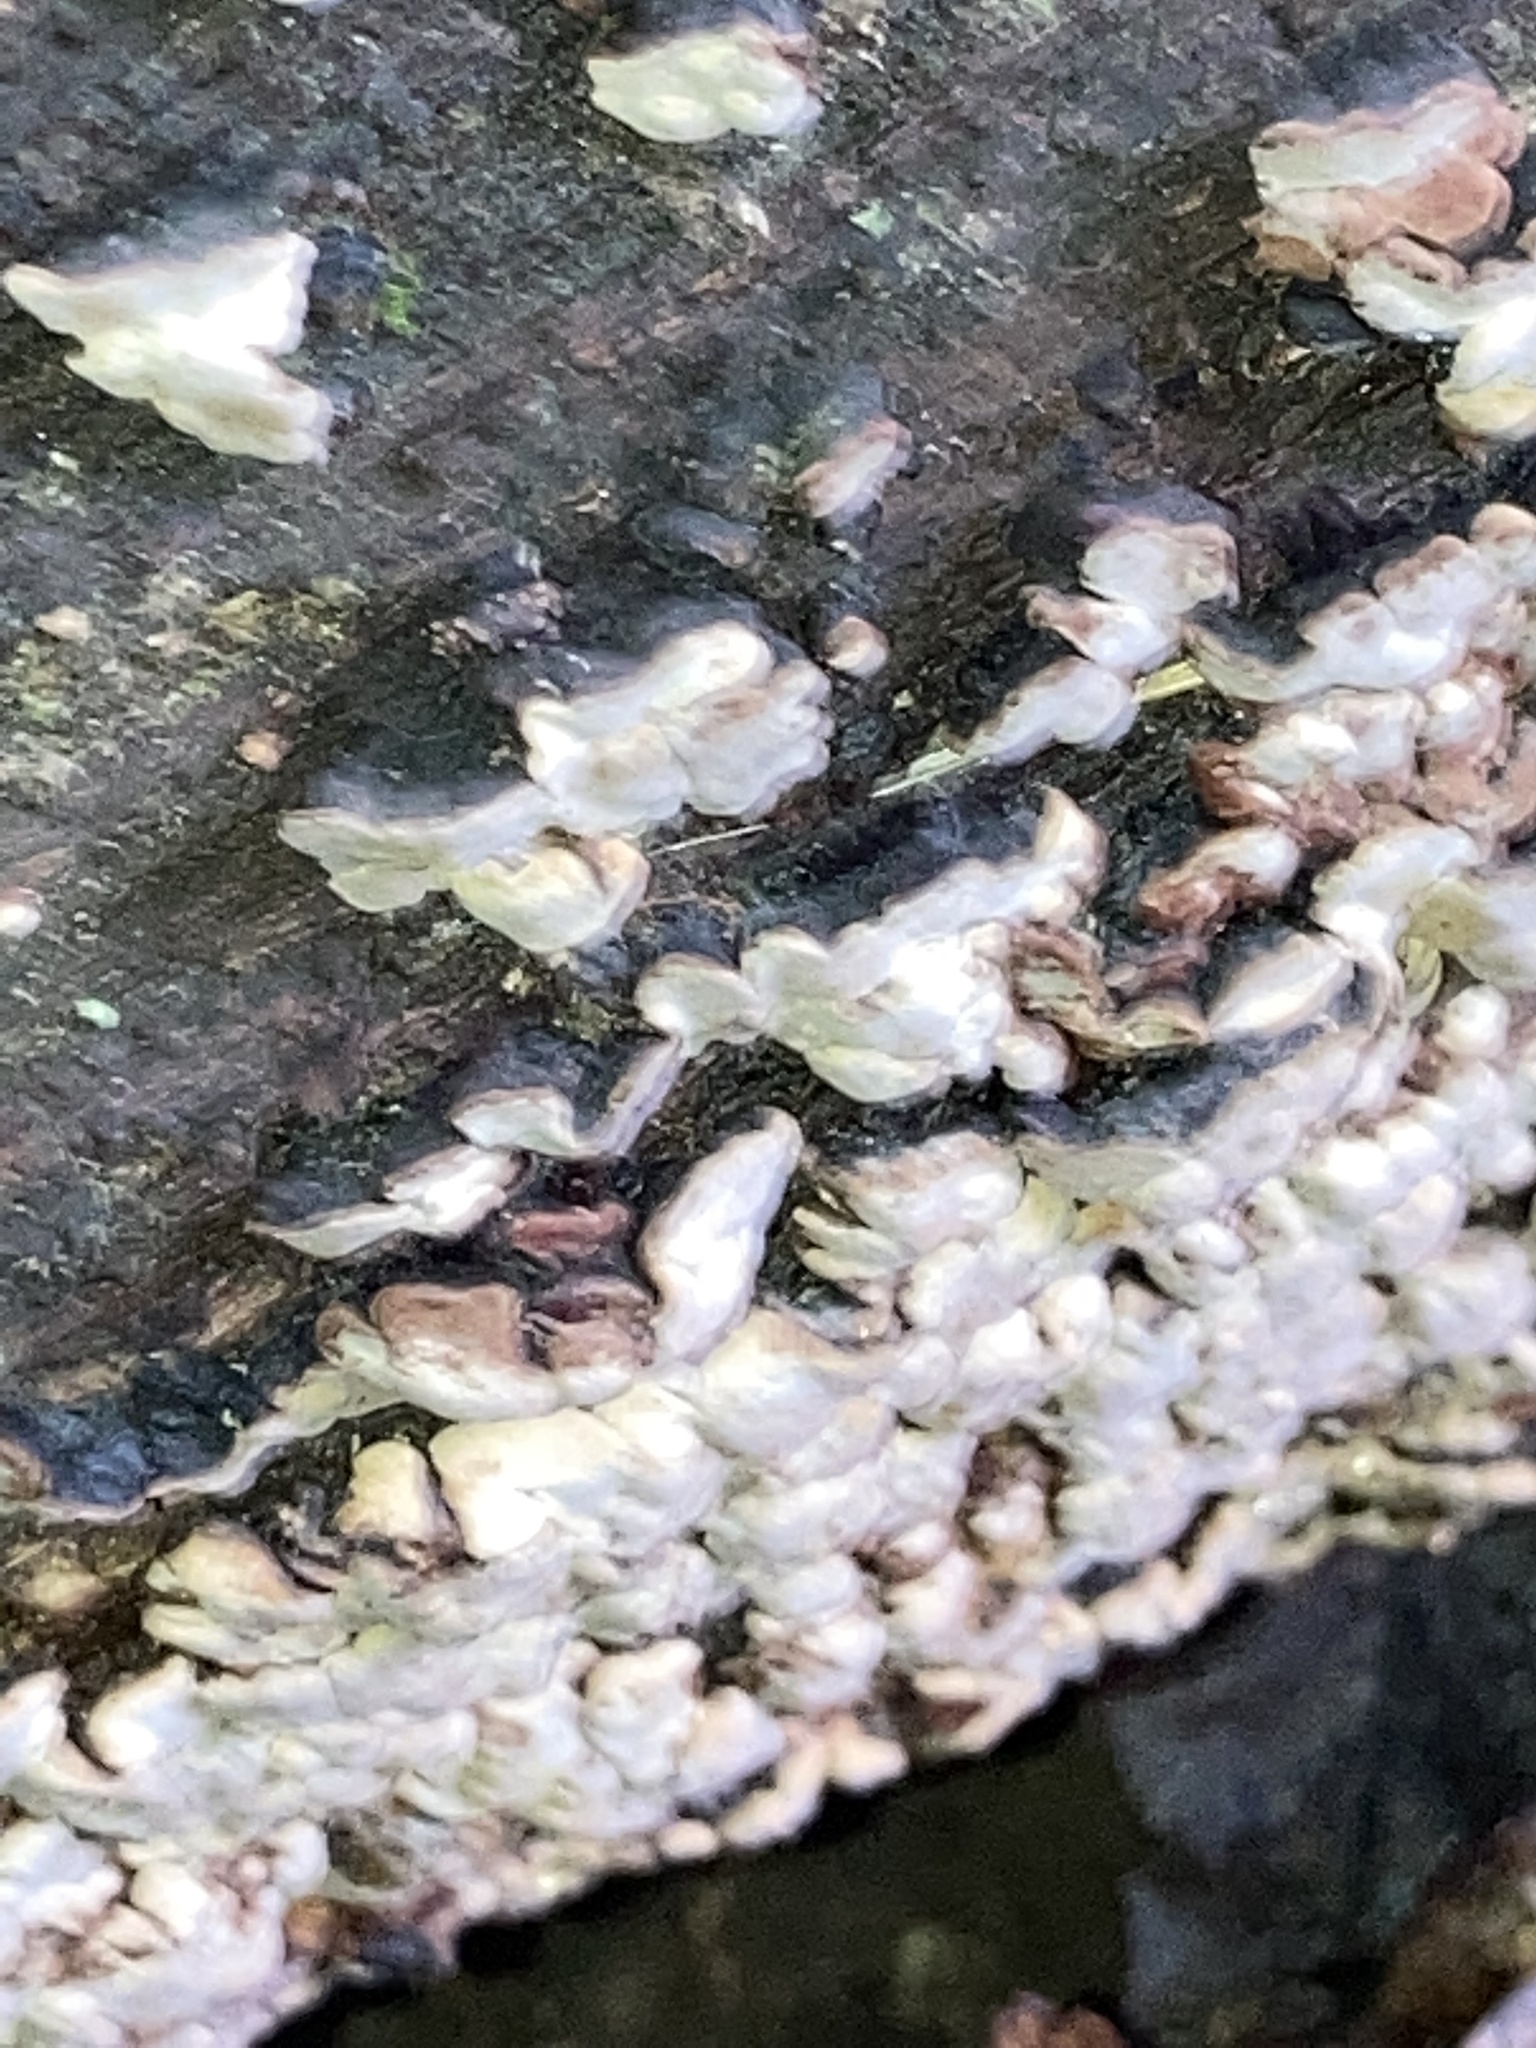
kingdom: Fungi
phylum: Basidiomycota
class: Agaricomycetes
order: Hymenochaetales
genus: Trichaptum
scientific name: Trichaptum biforme
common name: Violet-toothed polypore
